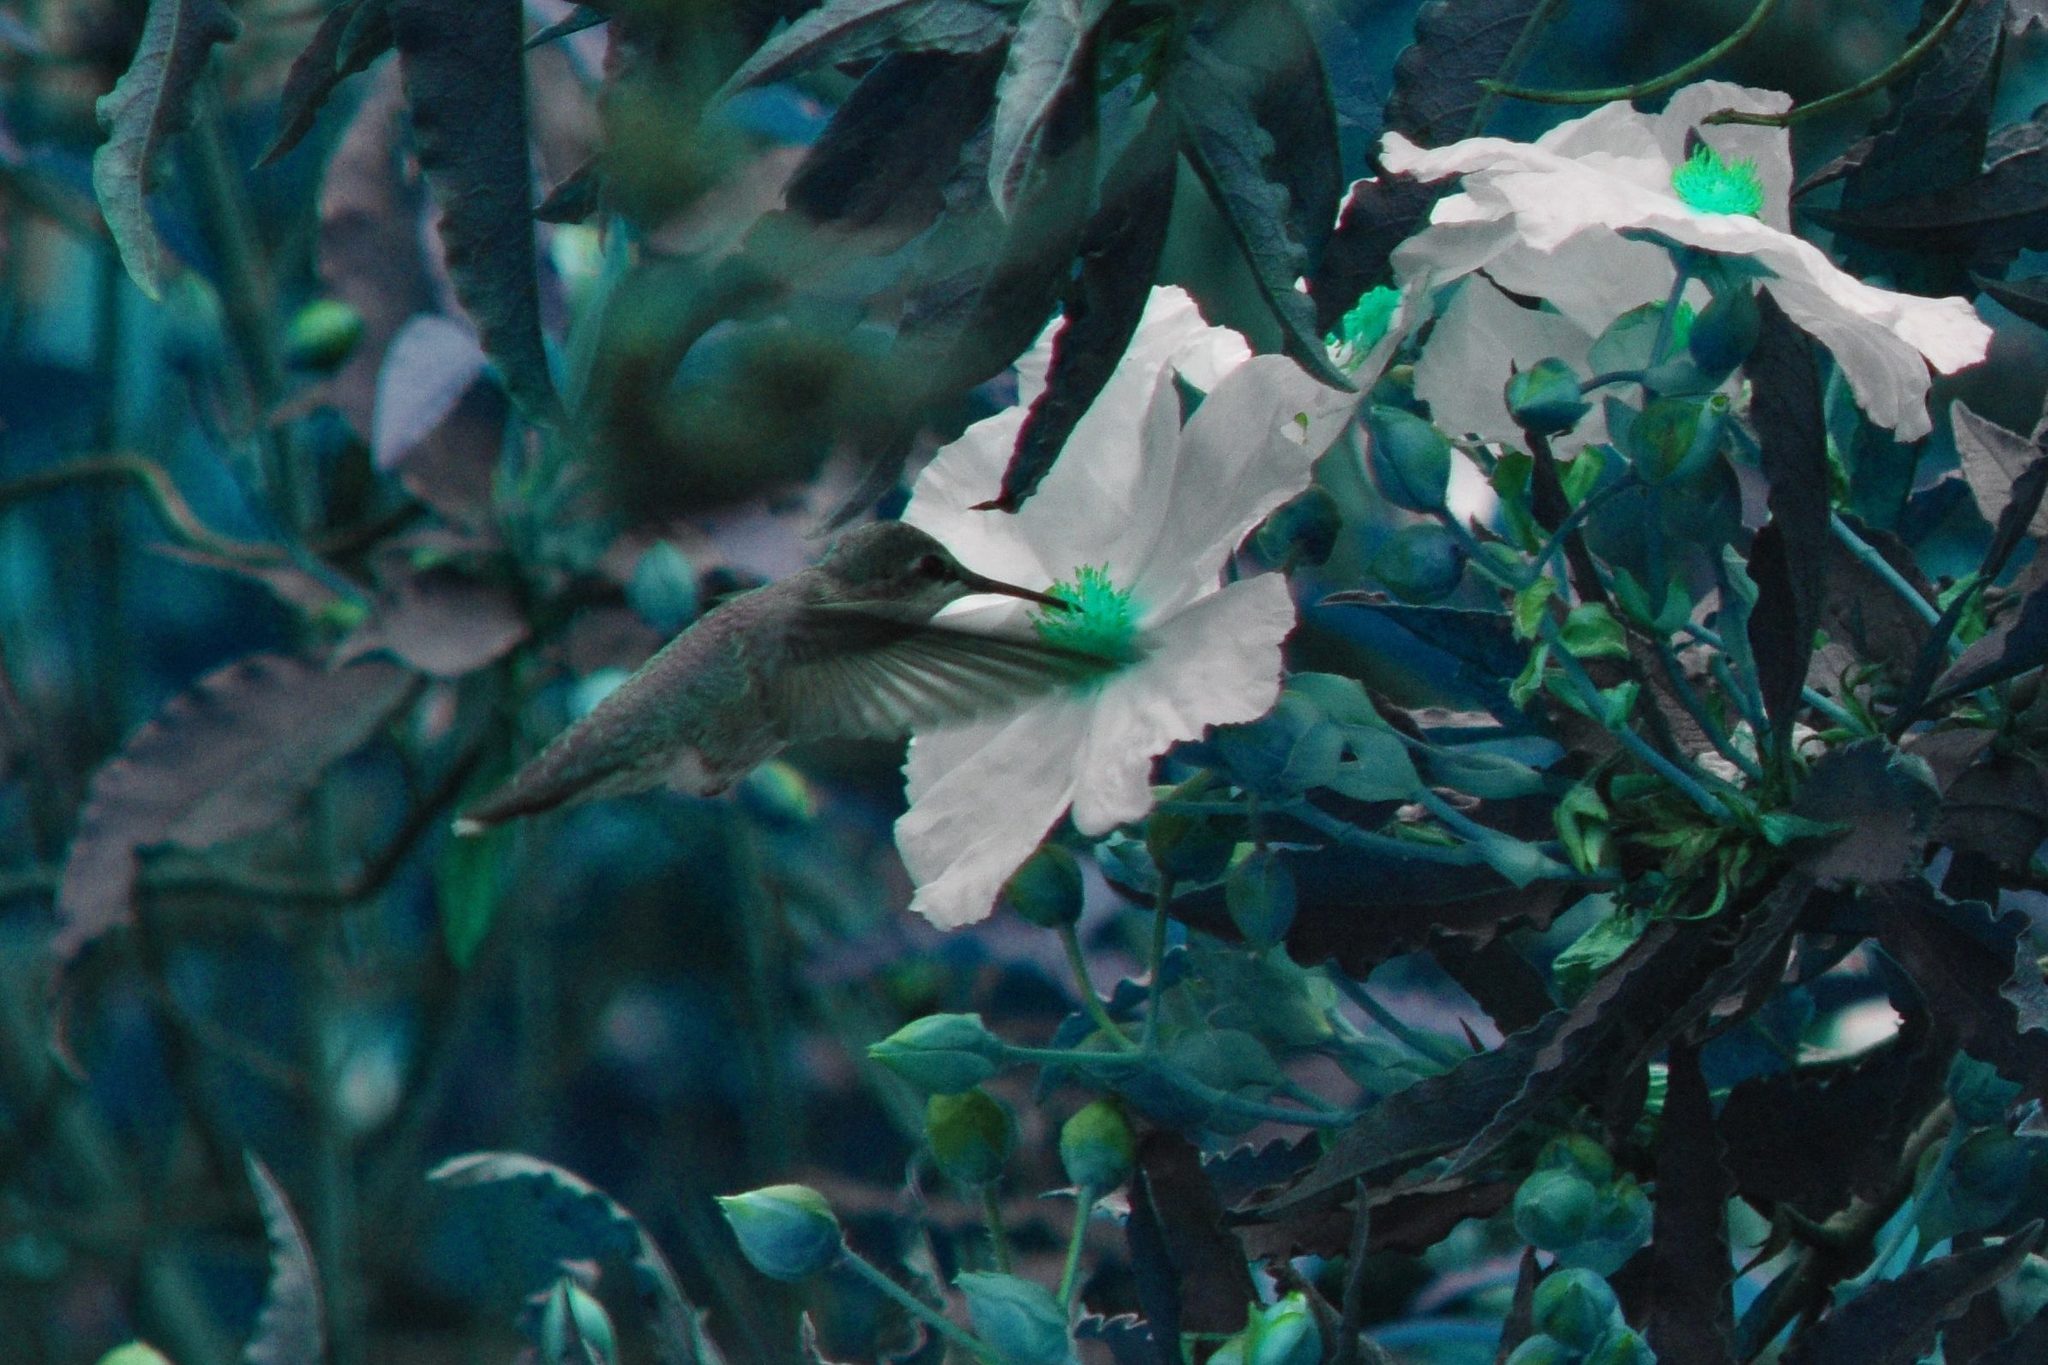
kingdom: Animalia
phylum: Chordata
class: Aves
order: Apodiformes
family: Trochilidae
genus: Calypte
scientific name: Calypte anna
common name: Anna's hummingbird
